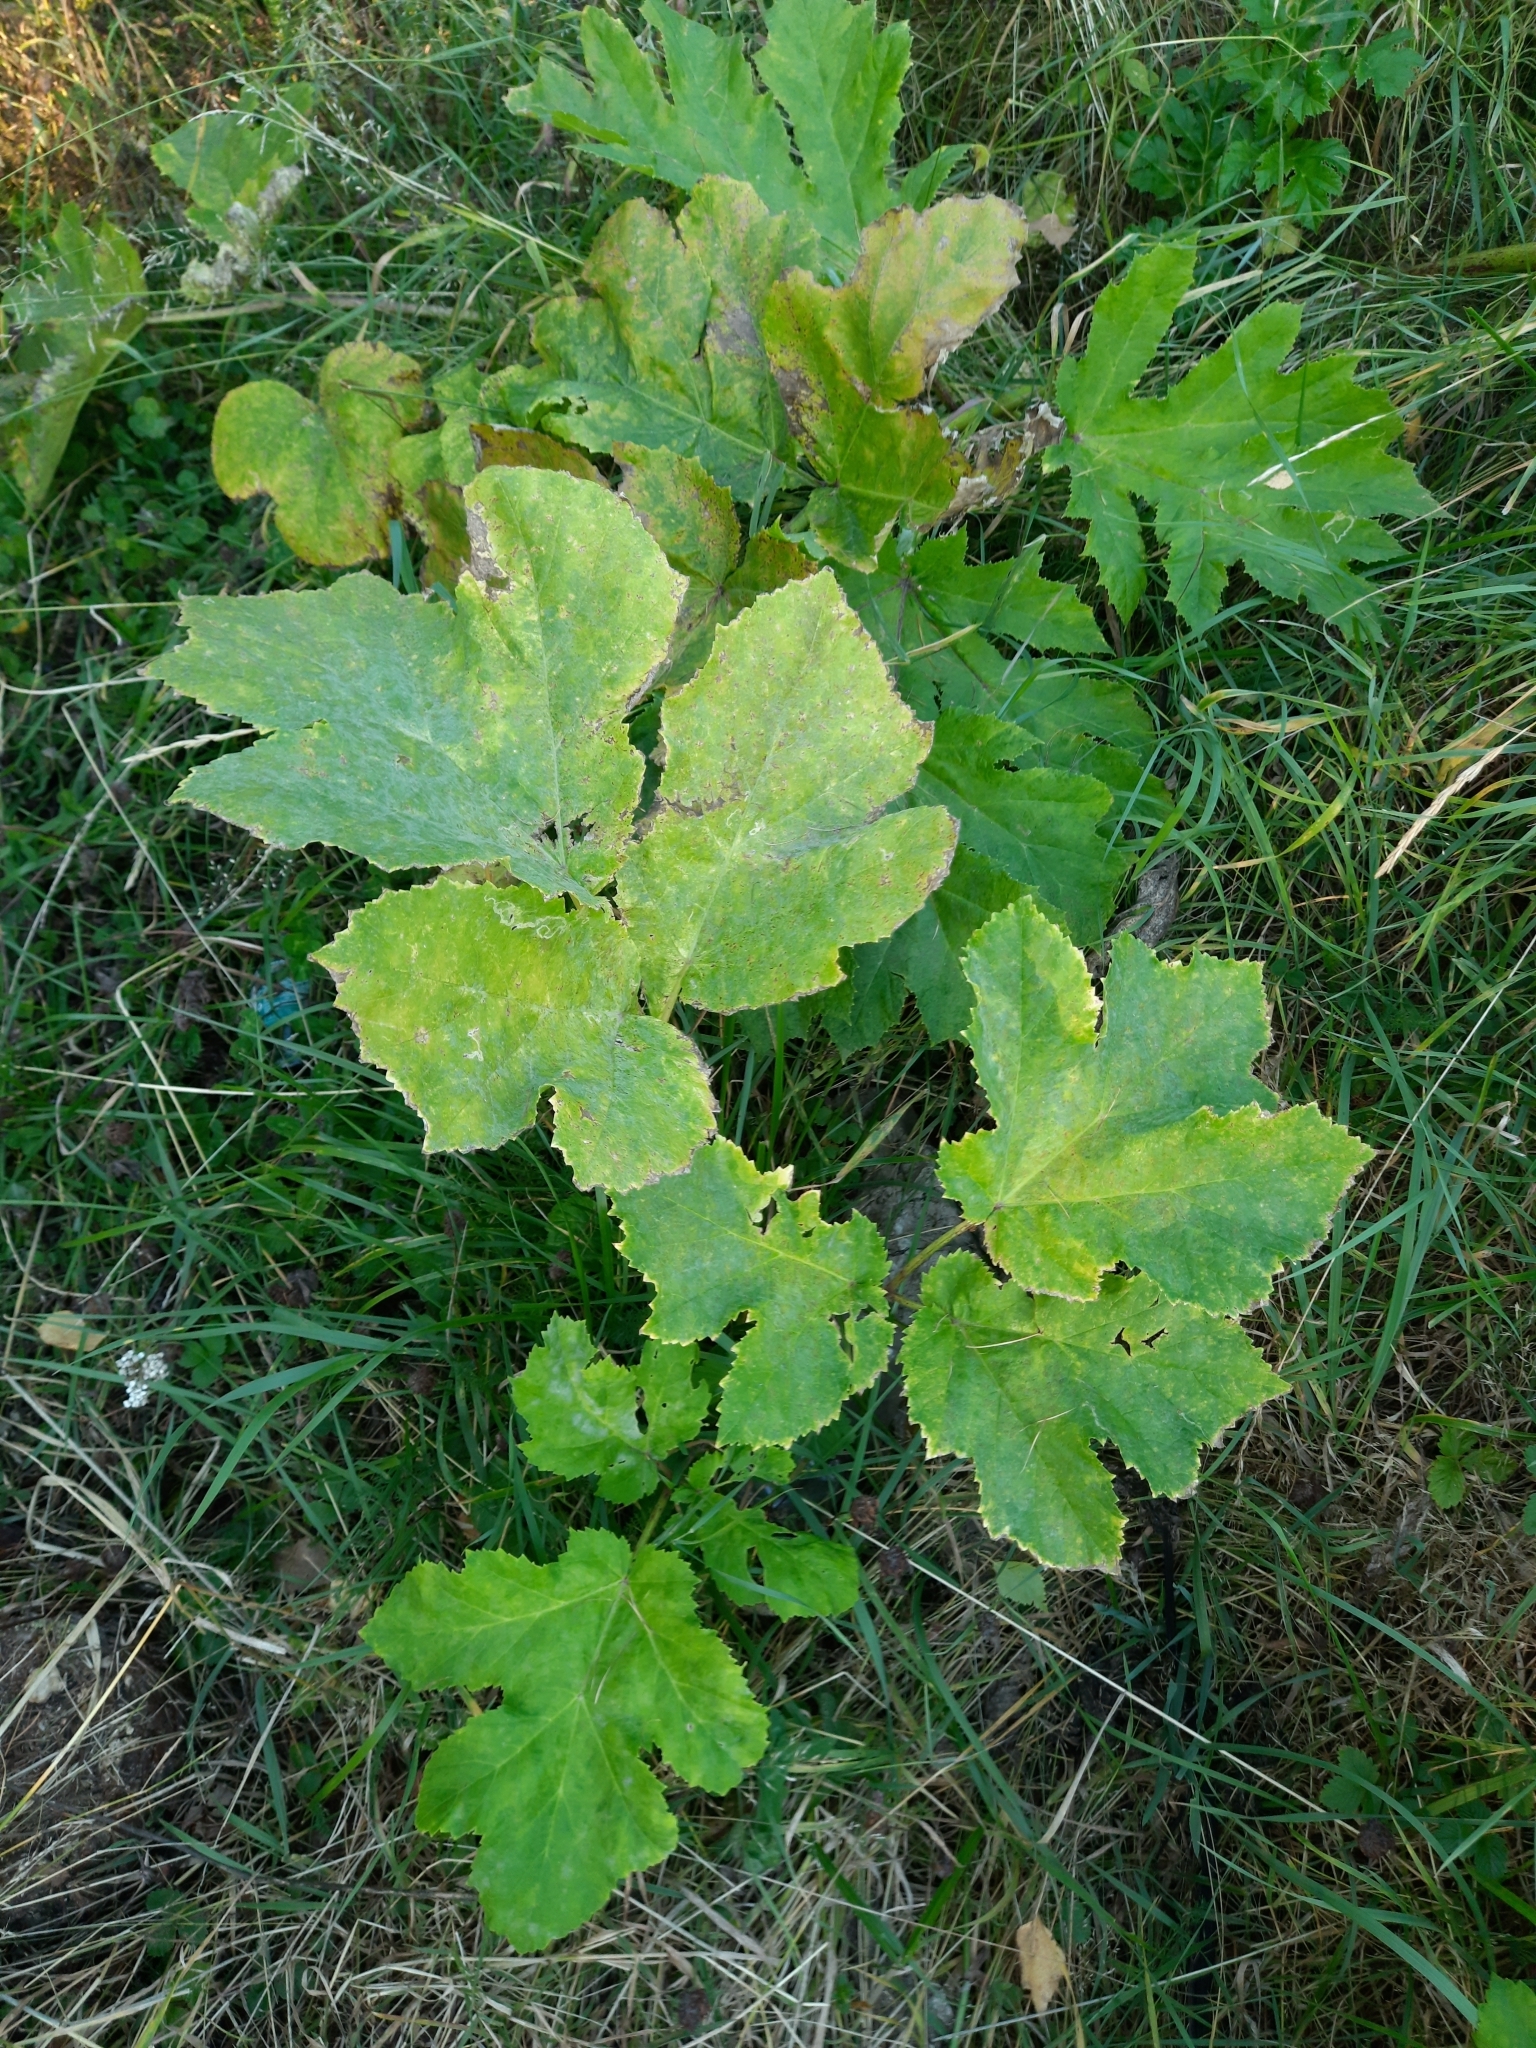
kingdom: Plantae
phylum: Tracheophyta
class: Magnoliopsida
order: Apiales
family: Apiaceae
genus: Heracleum
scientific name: Heracleum sosnowskyi
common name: Sosnowsky's hogweed
